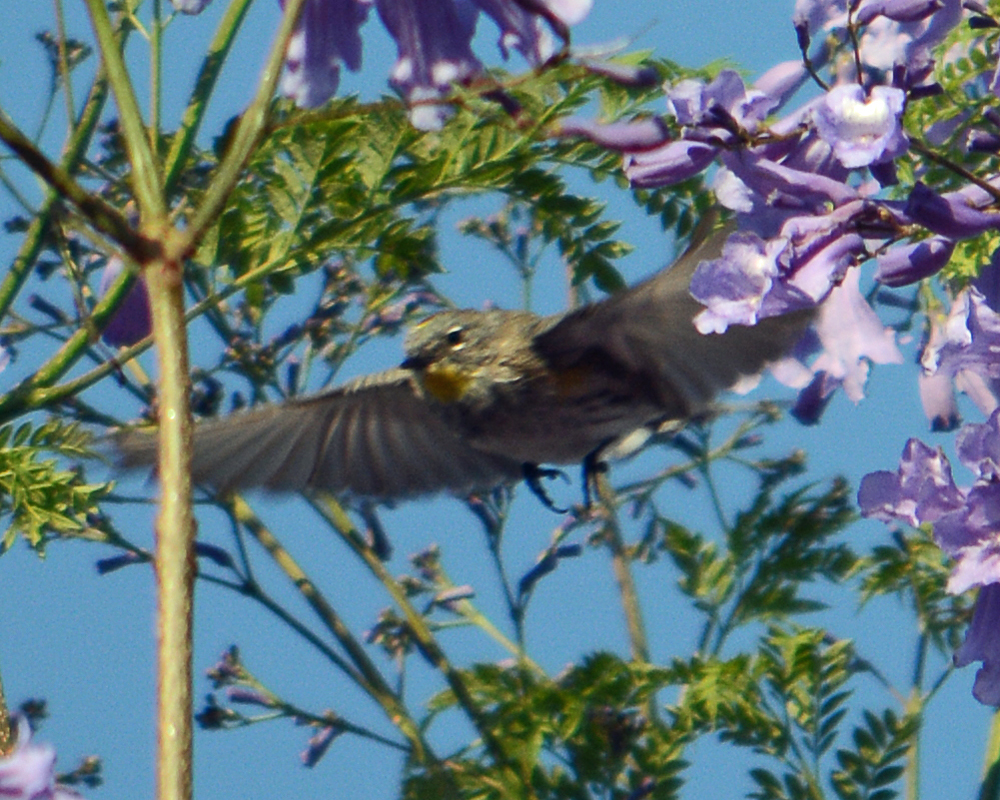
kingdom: Animalia
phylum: Chordata
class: Aves
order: Passeriformes
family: Parulidae
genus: Setophaga
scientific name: Setophaga auduboni
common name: Audubon's warbler
